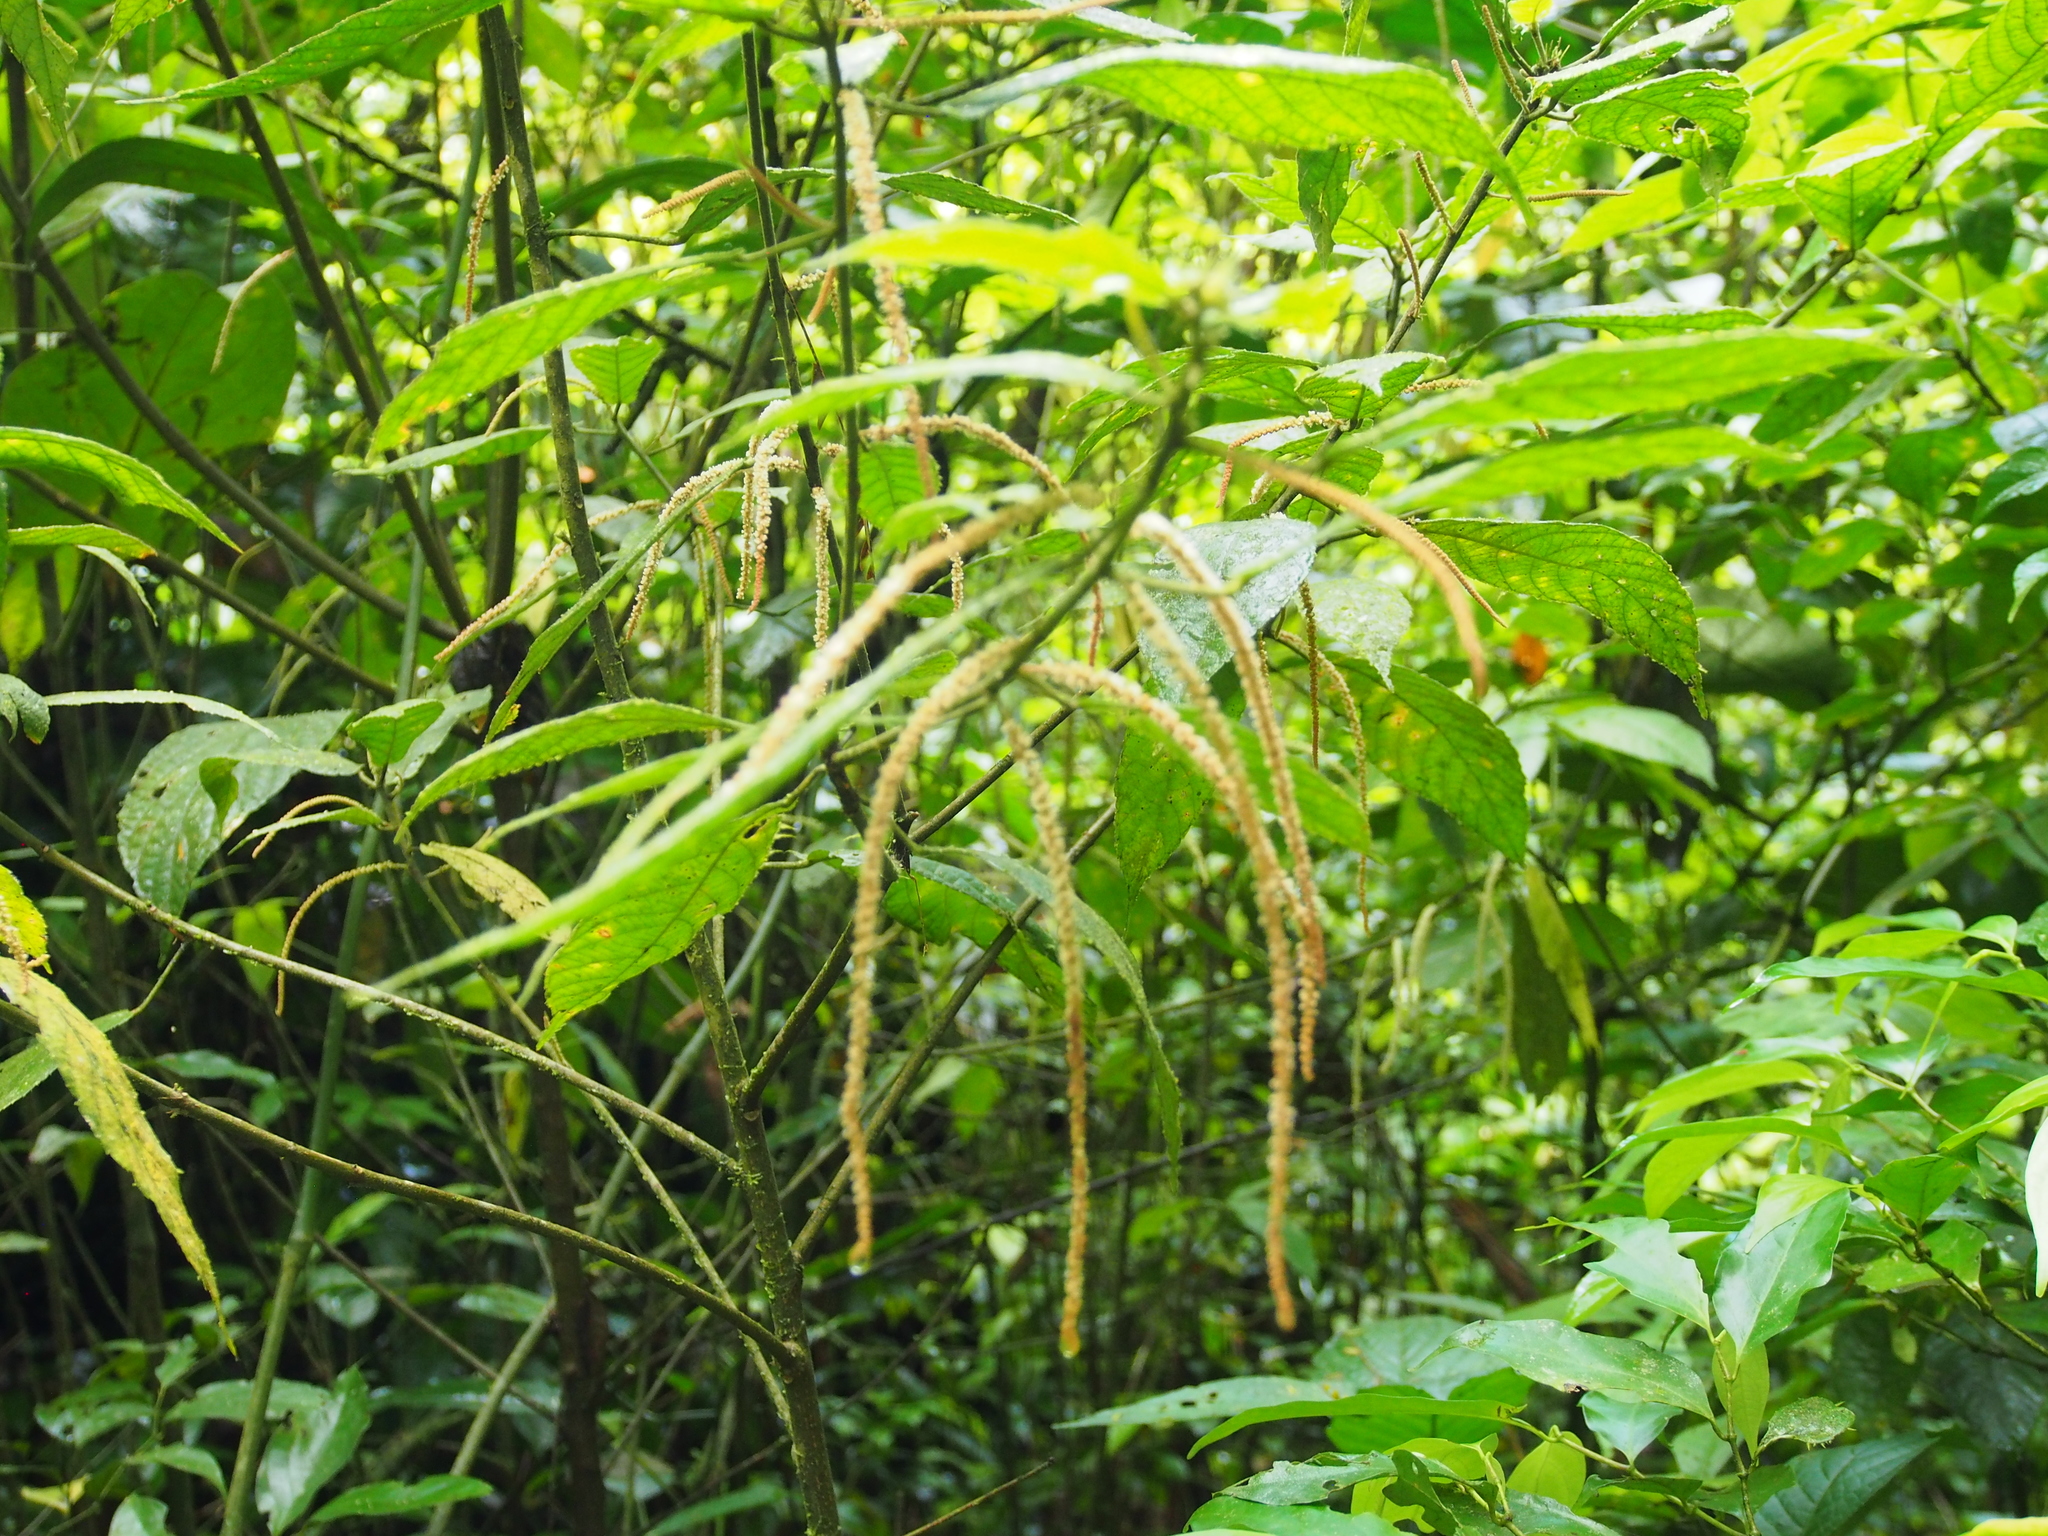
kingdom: Plantae
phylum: Tracheophyta
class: Magnoliopsida
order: Rosales
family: Urticaceae
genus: Myriocarpa
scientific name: Myriocarpa longipes
